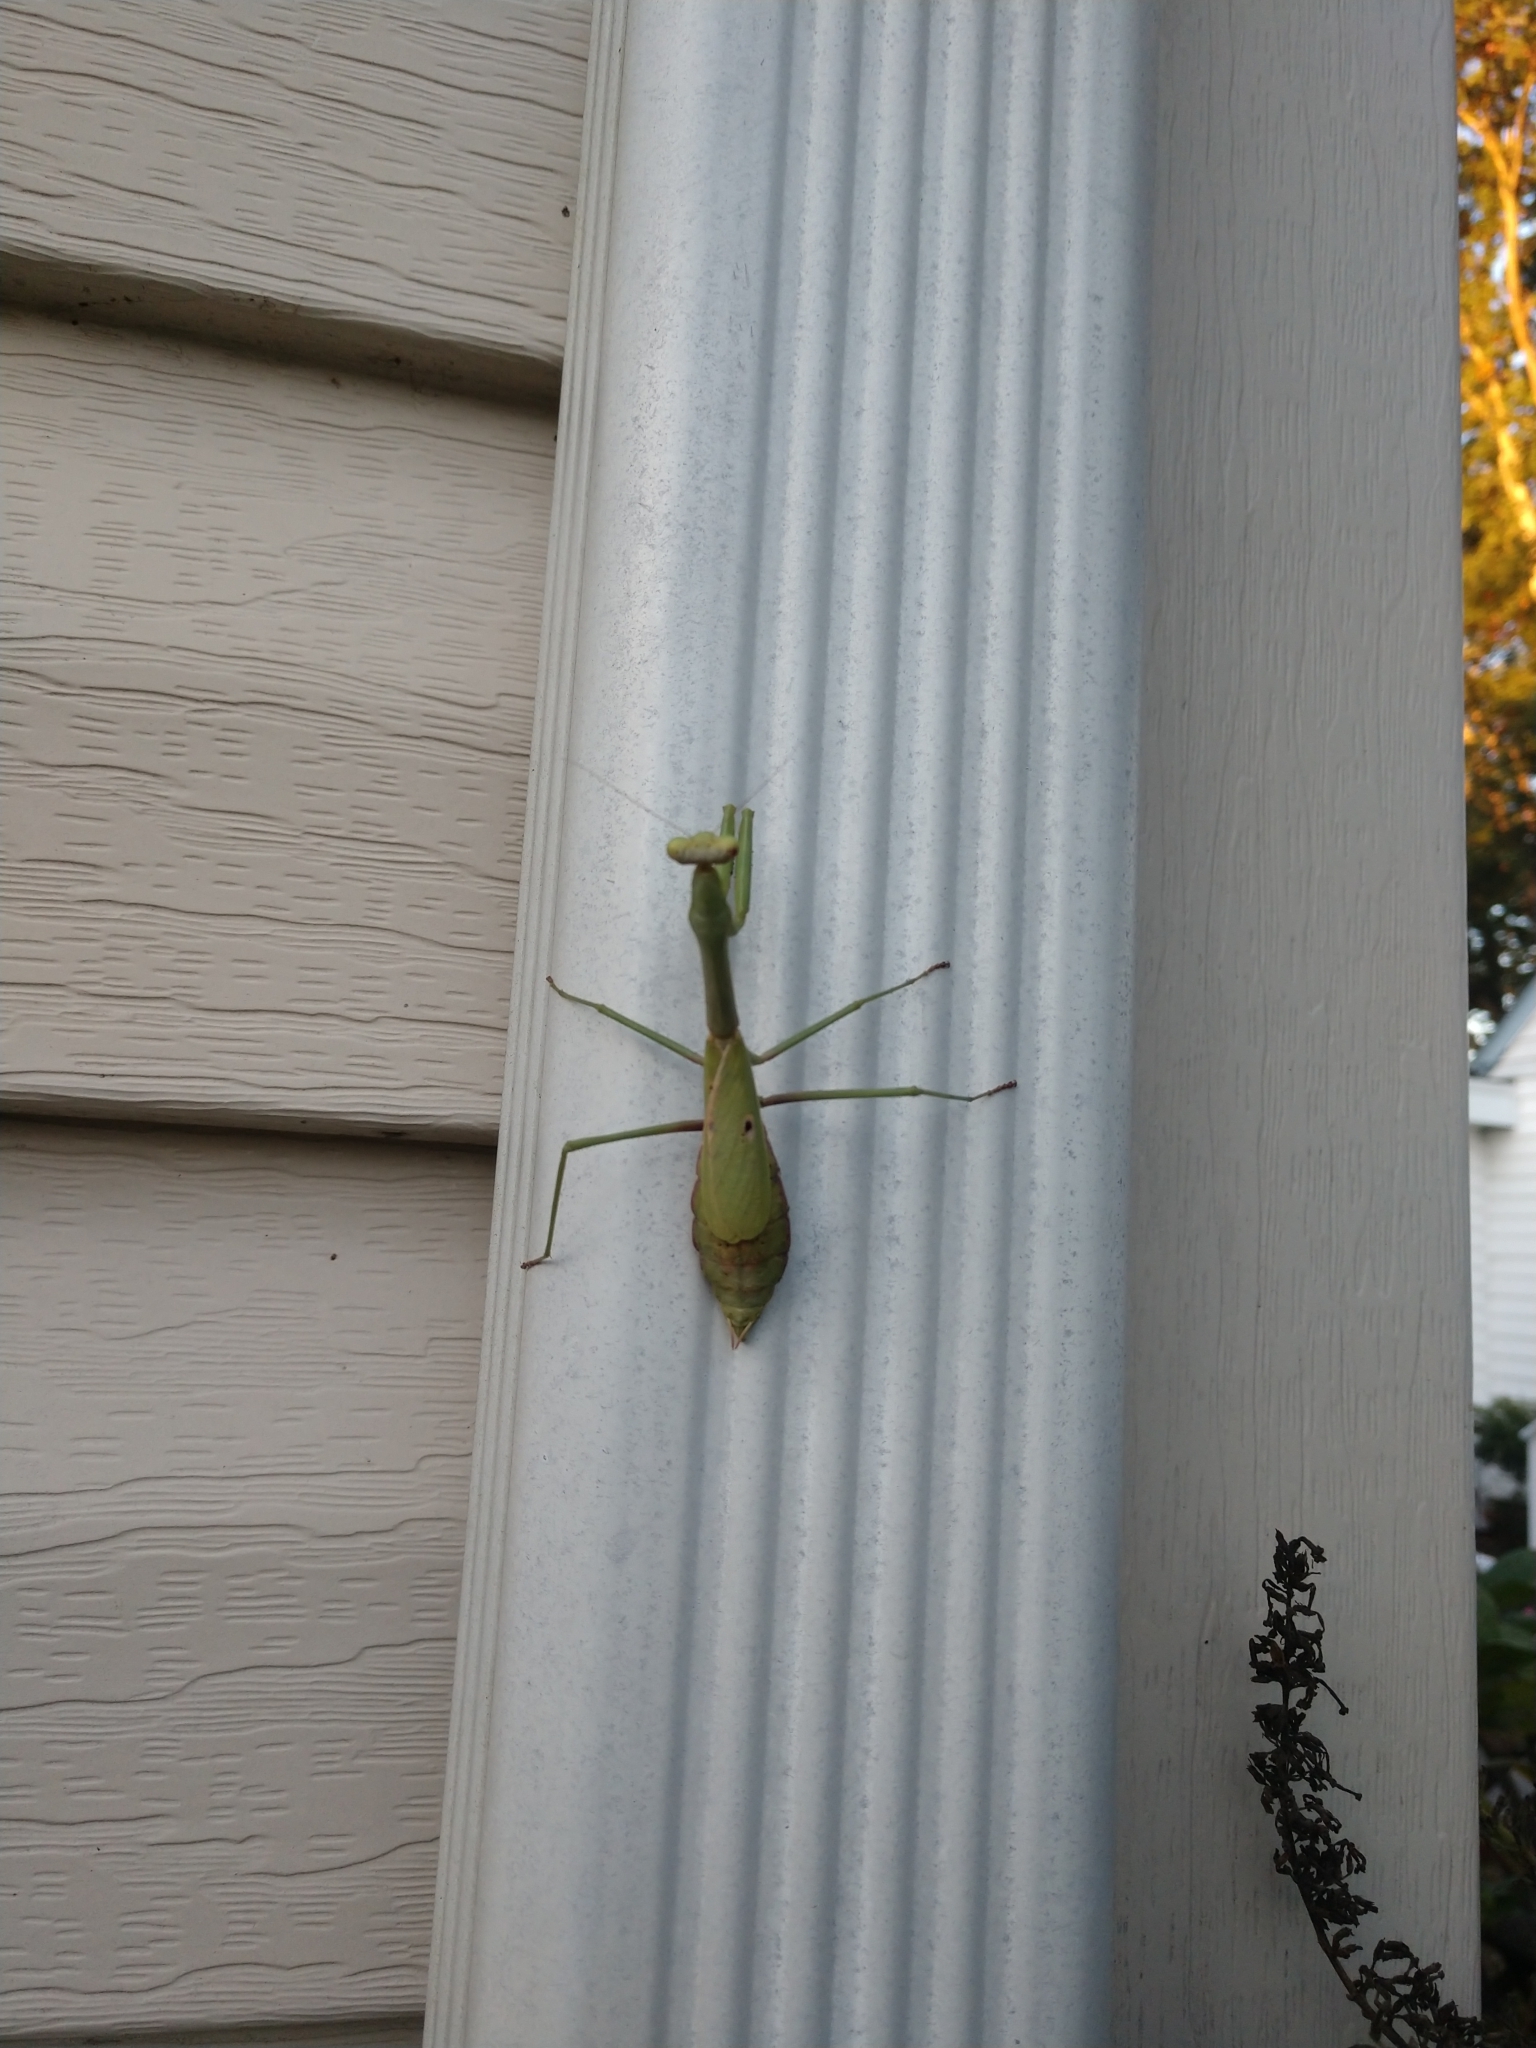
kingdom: Animalia
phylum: Arthropoda
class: Insecta
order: Mantodea
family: Mantidae
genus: Stagmomantis
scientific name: Stagmomantis carolina
